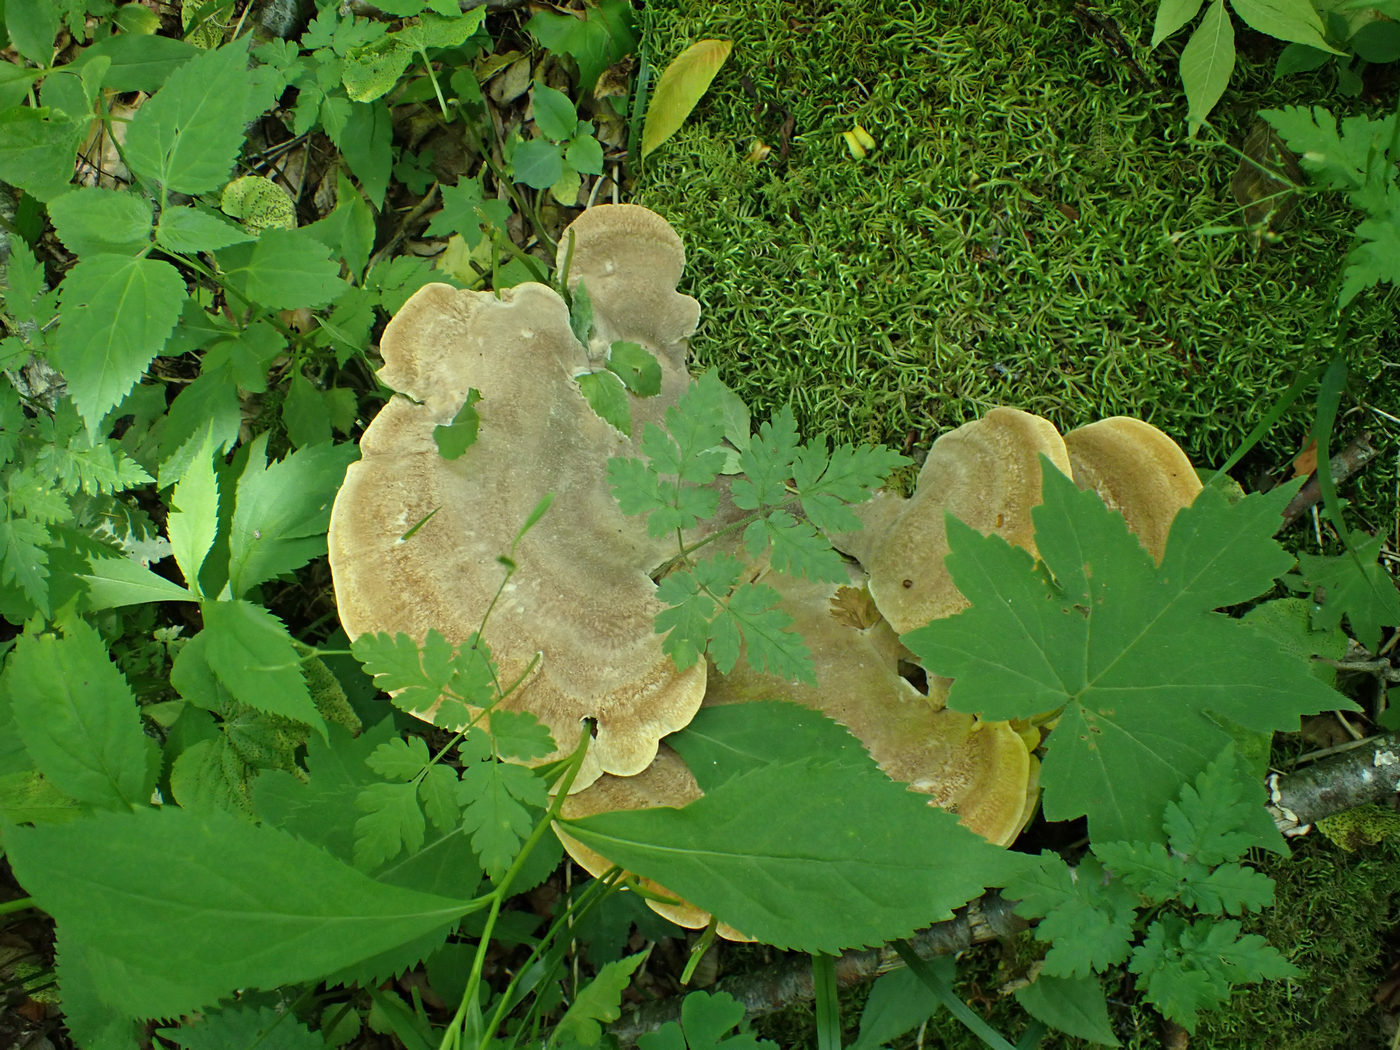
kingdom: Fungi
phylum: Basidiomycota
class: Agaricomycetes
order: Russulales
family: Bondarzewiaceae
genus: Bondarzewia
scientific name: Bondarzewia berkeleyi
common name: Berkeley's polypore
